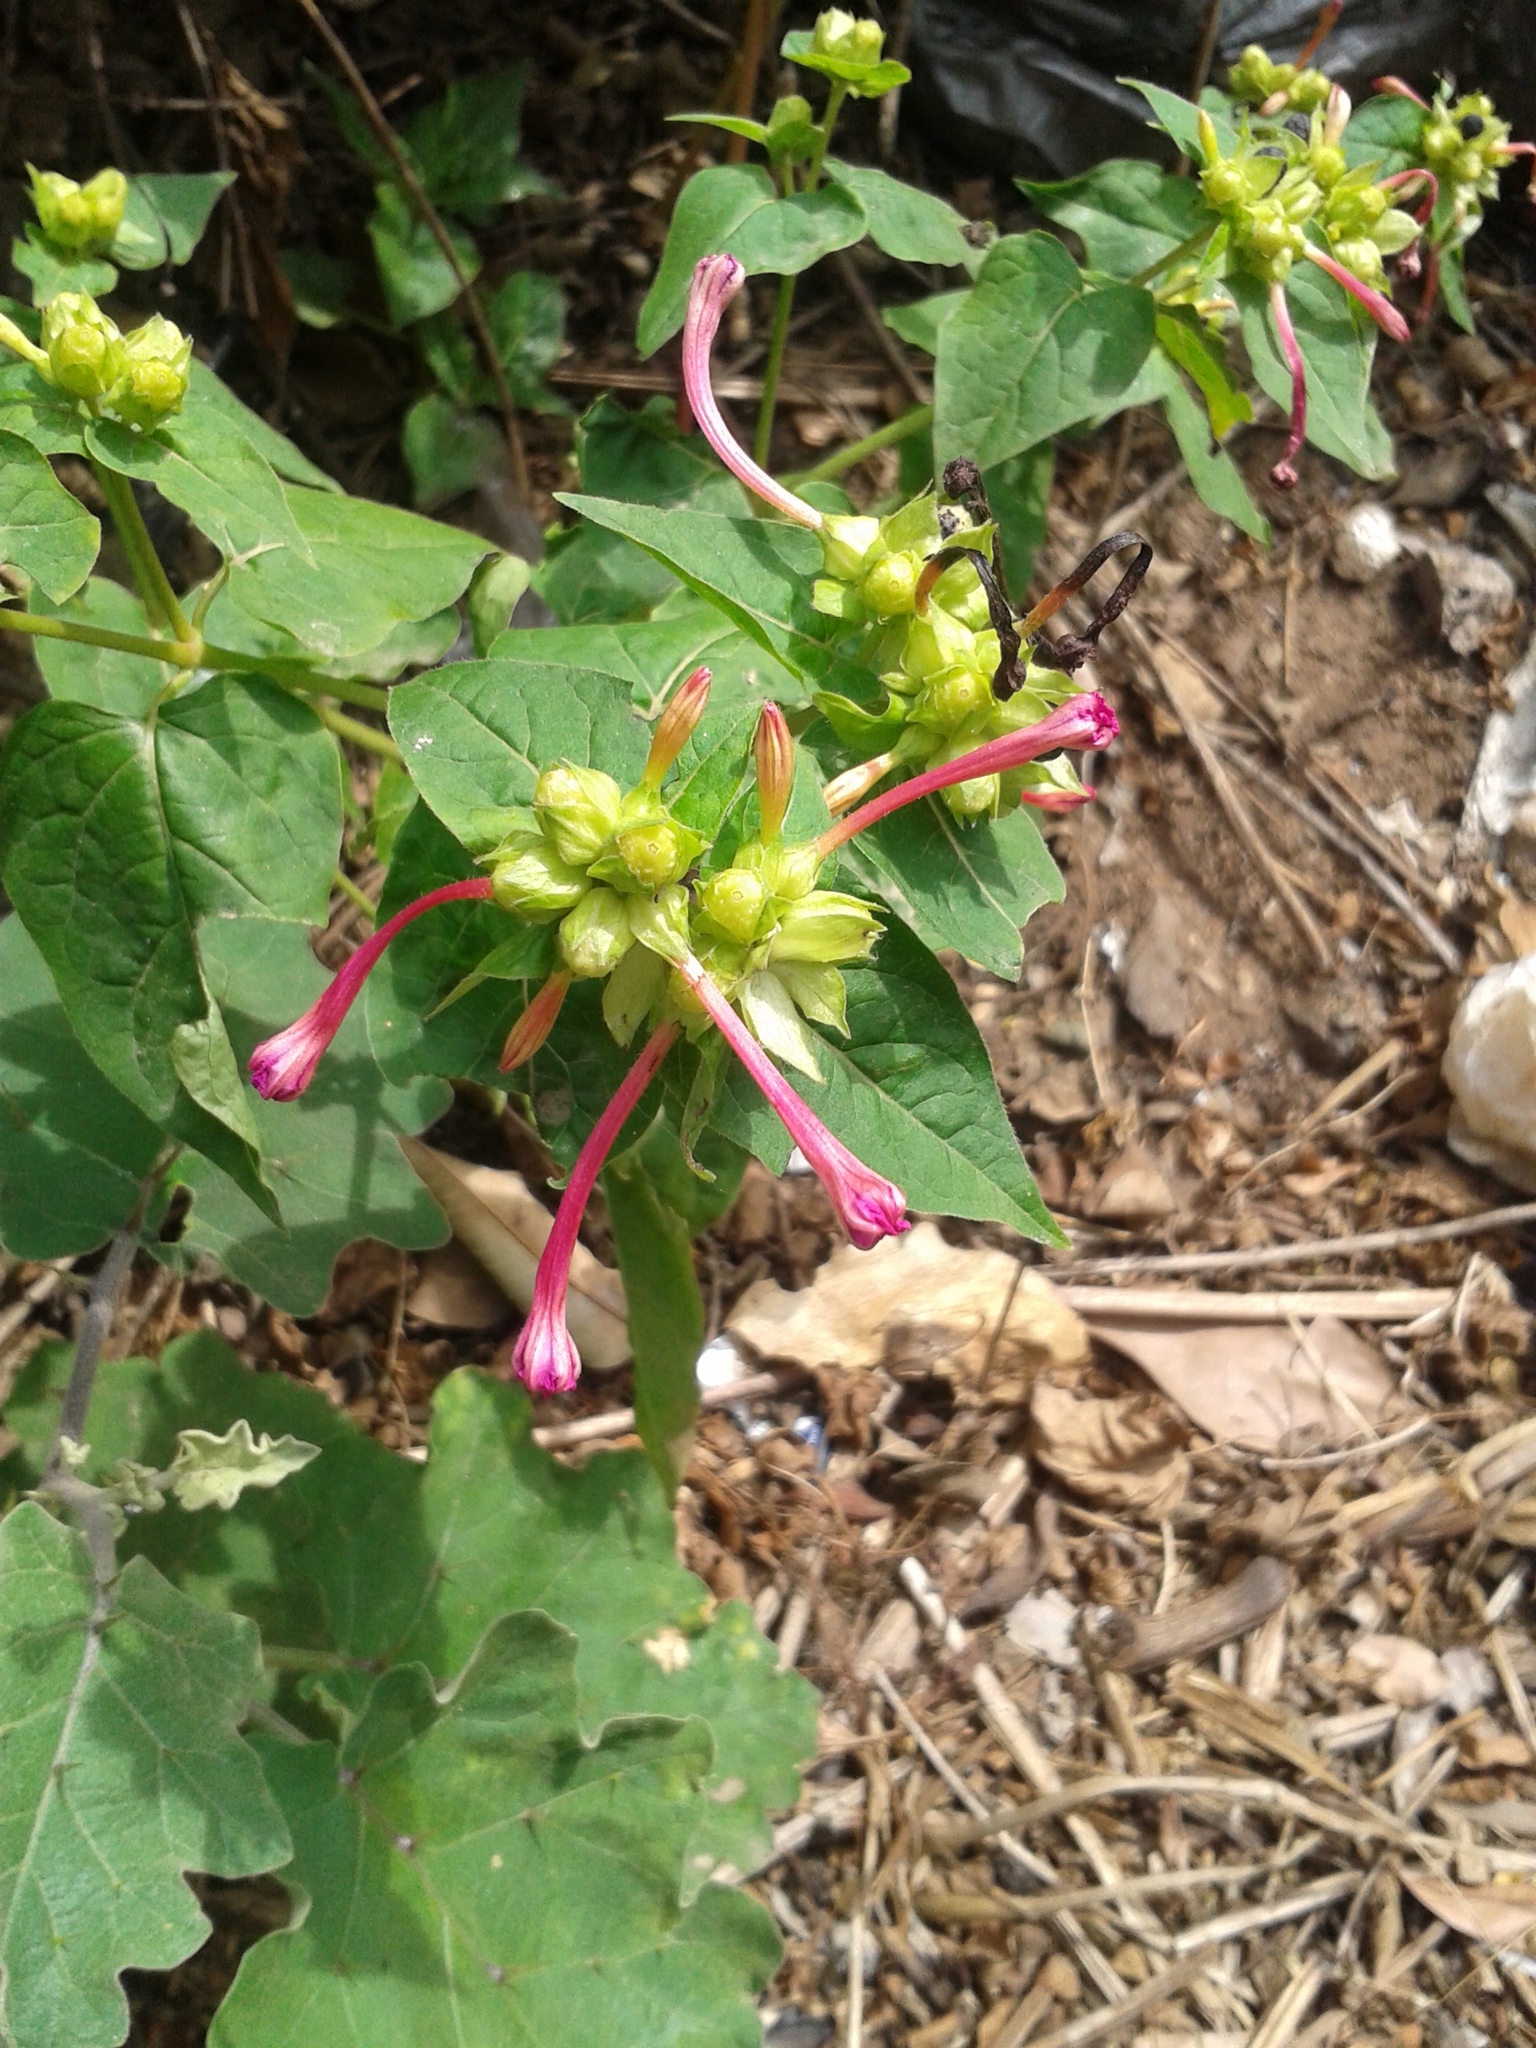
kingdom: Plantae
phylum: Tracheophyta
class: Magnoliopsida
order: Caryophyllales
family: Nyctaginaceae
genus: Mirabilis
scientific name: Mirabilis jalapa
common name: Marvel-of-peru
